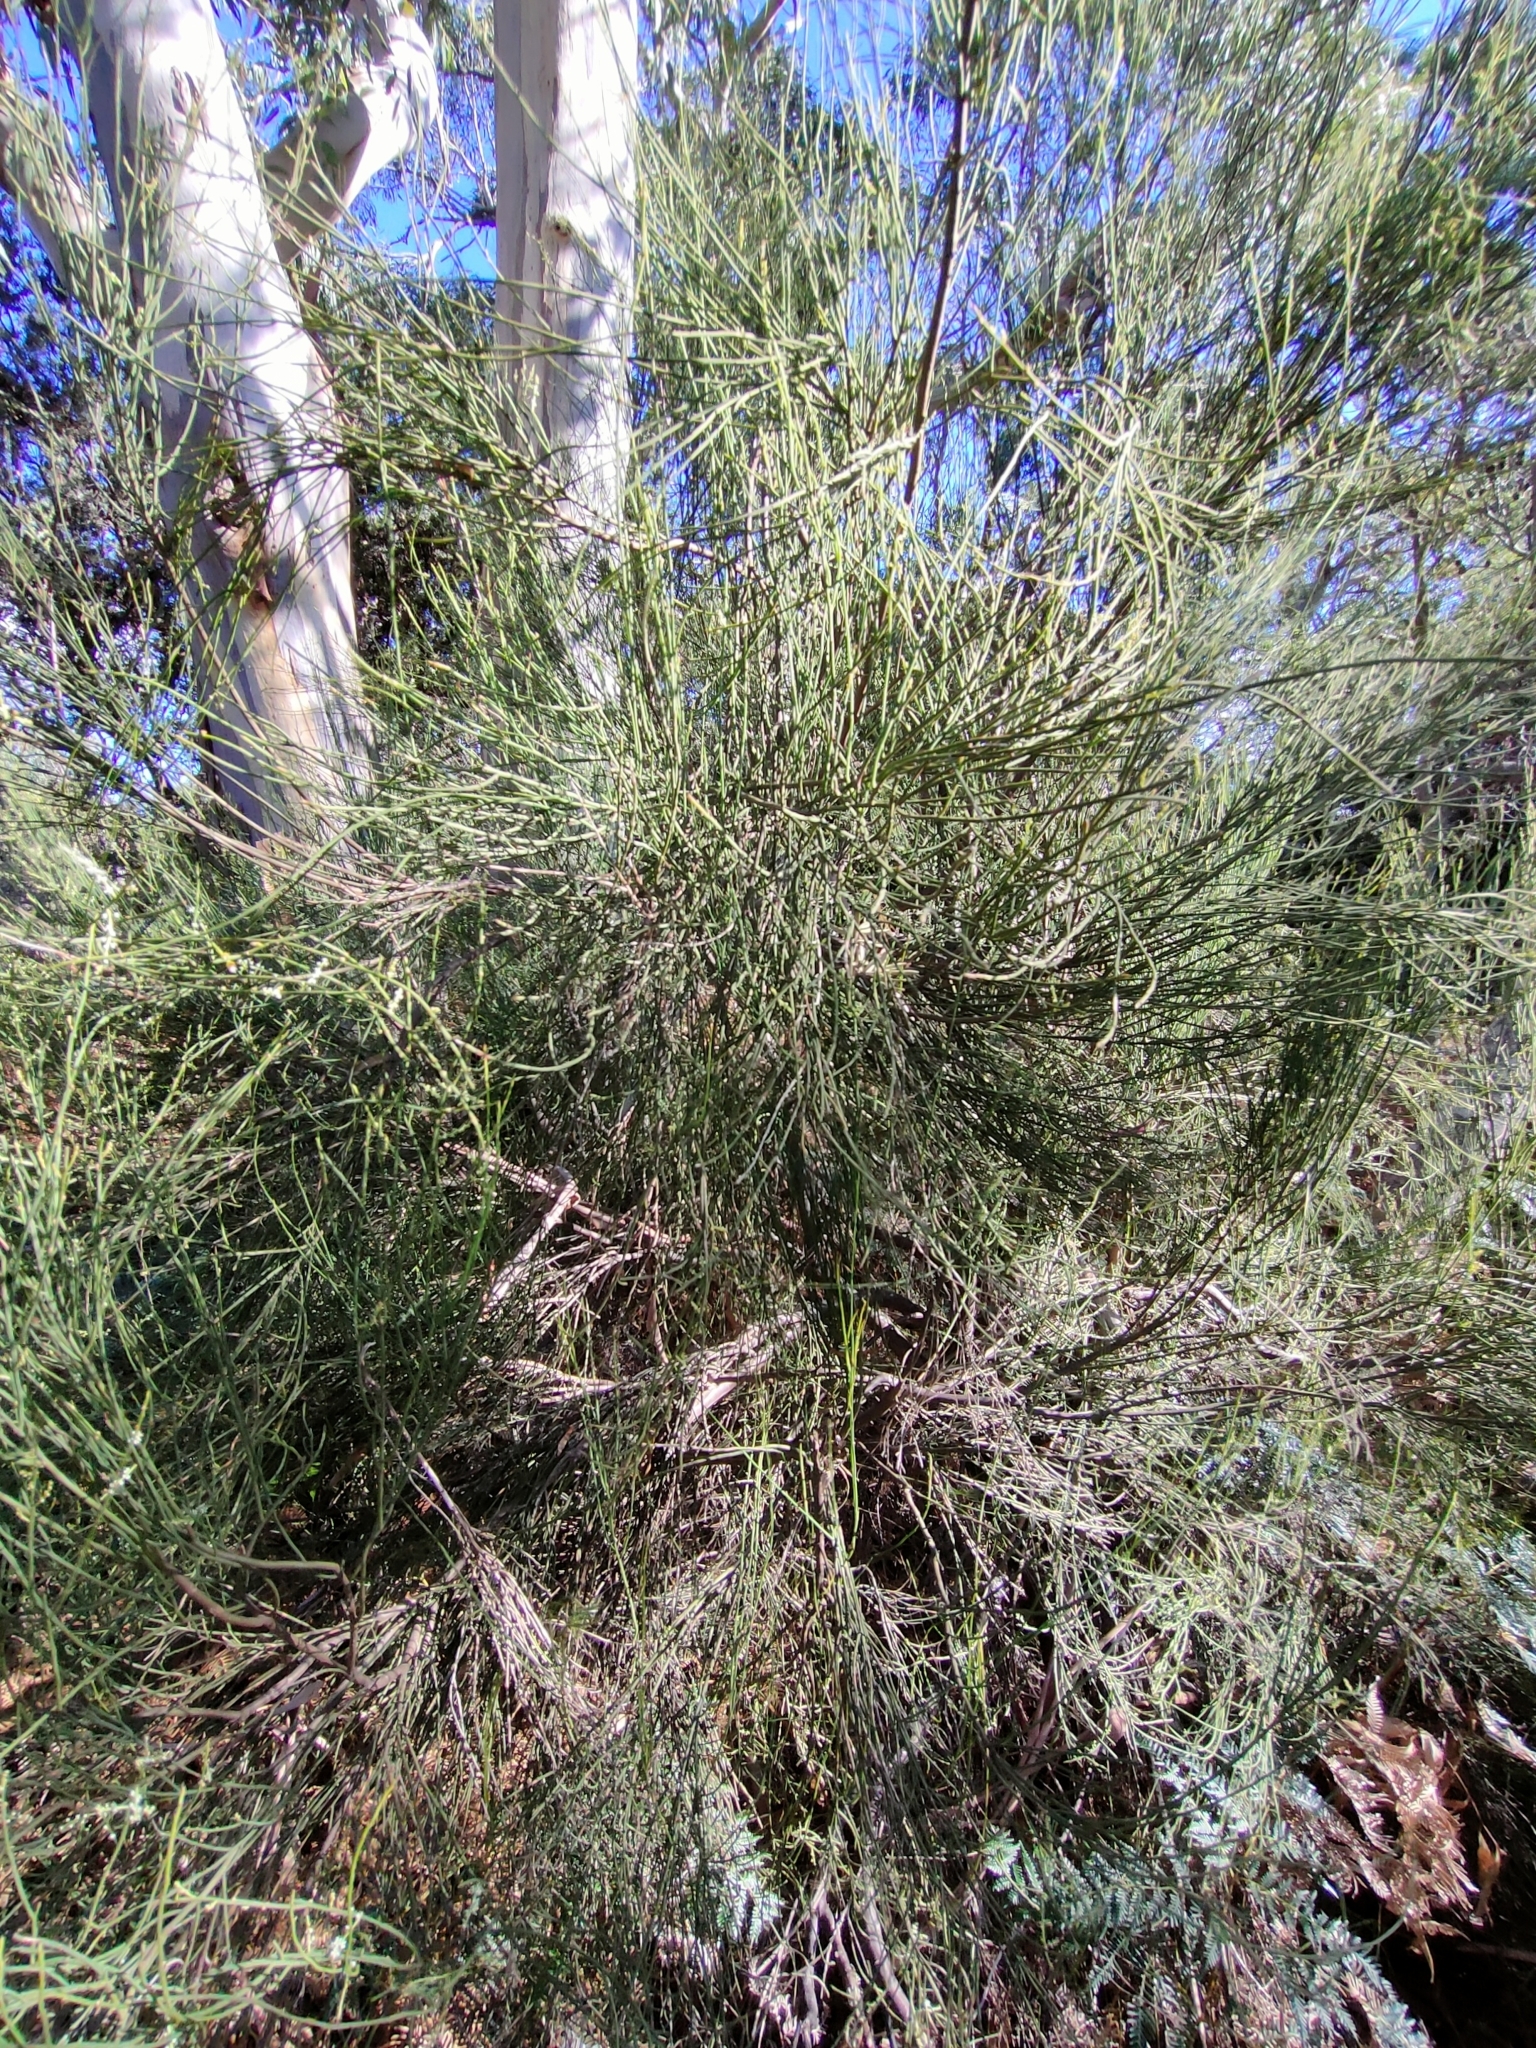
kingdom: Plantae
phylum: Tracheophyta
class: Magnoliopsida
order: Santalales
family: Amphorogynaceae
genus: Leptomeria
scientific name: Leptomeria drupacea
